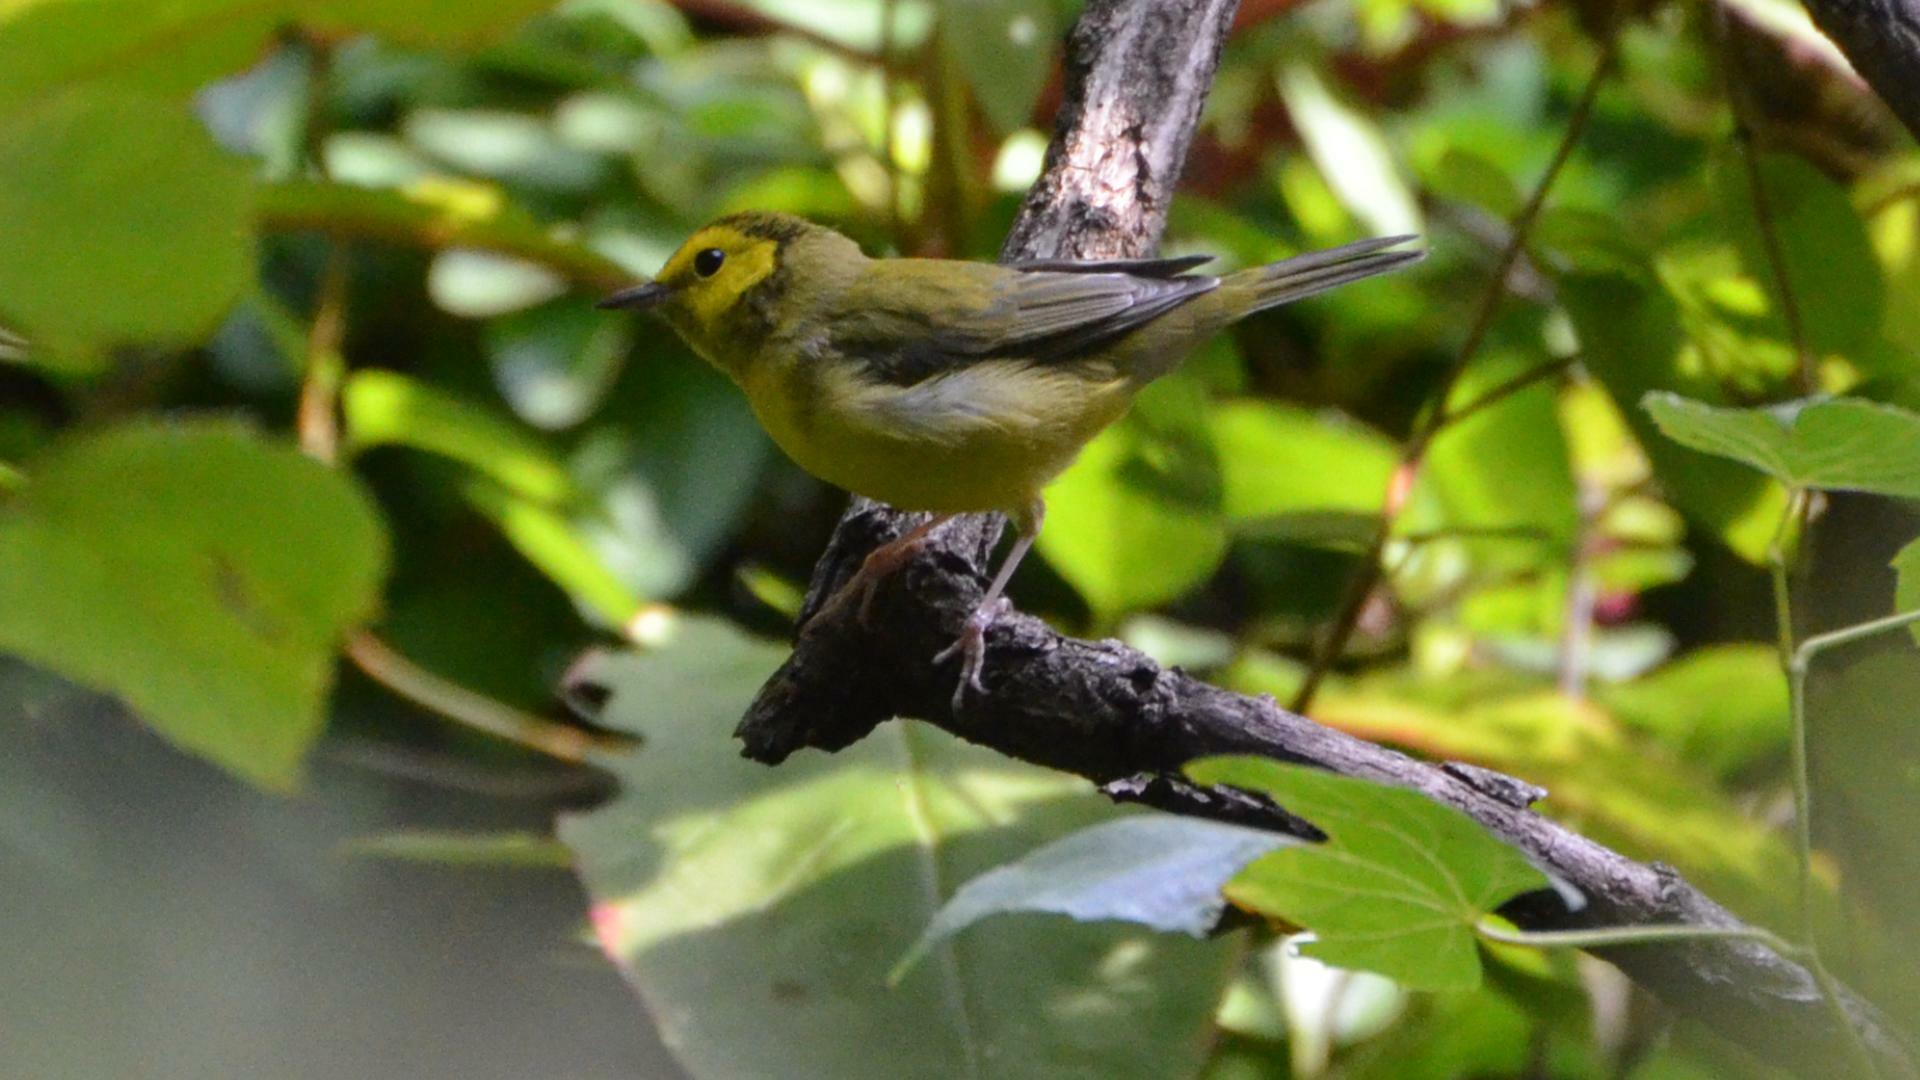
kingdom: Animalia
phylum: Chordata
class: Aves
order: Passeriformes
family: Parulidae
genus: Setophaga
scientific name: Setophaga citrina
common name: Hooded warbler
